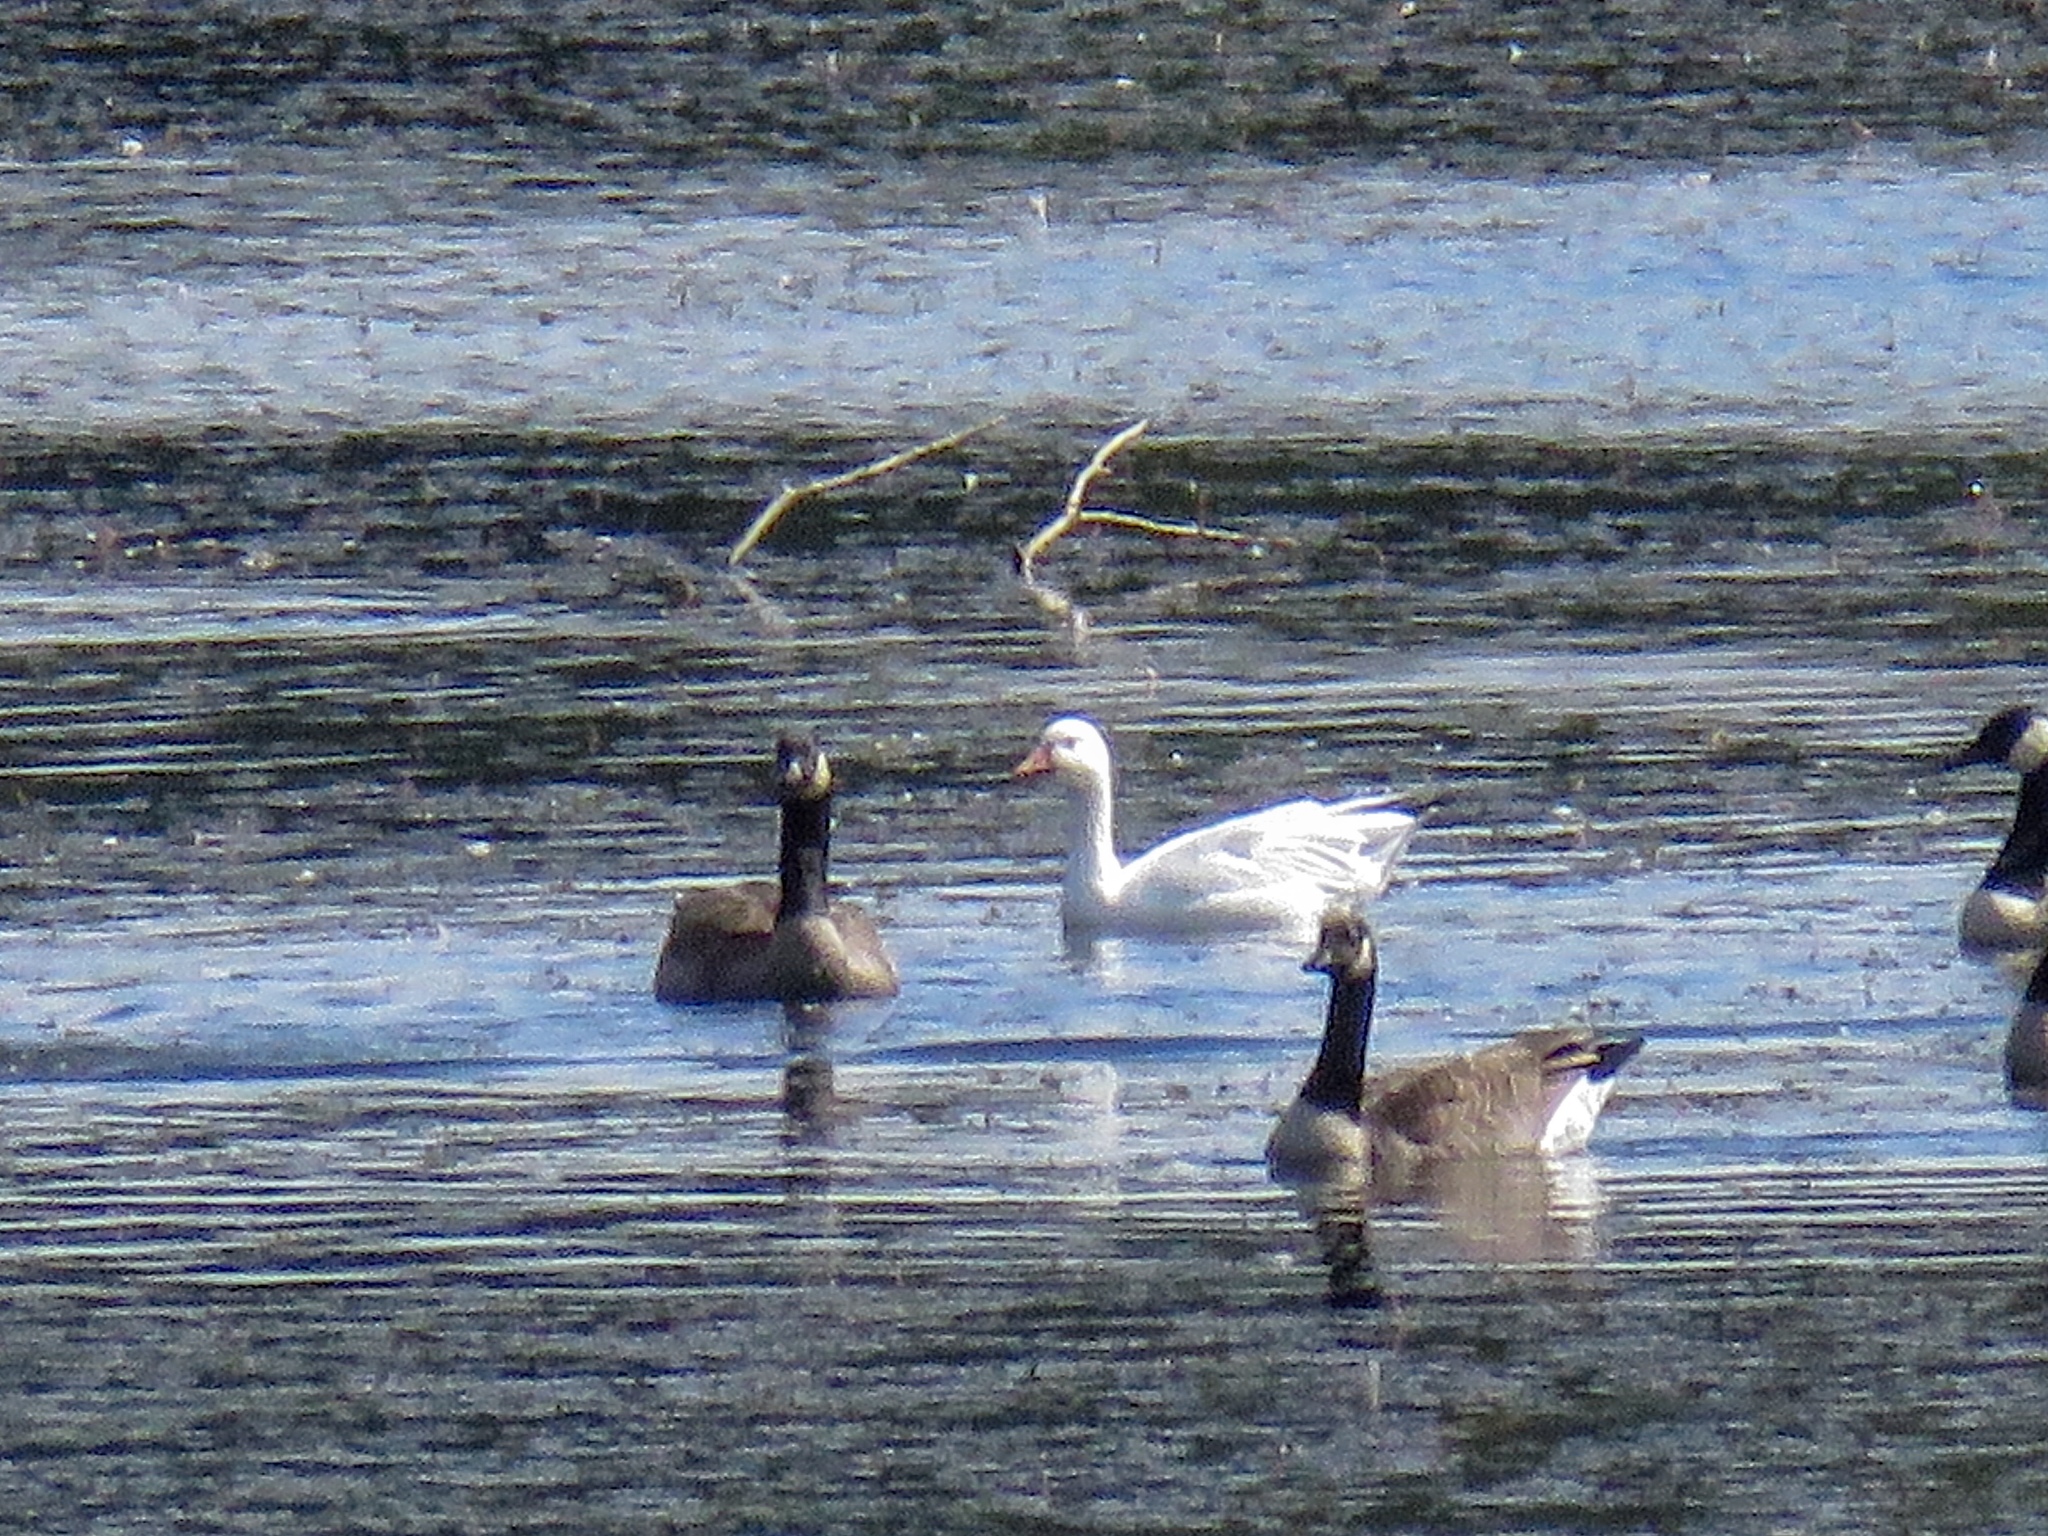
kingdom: Animalia
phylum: Chordata
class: Aves
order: Anseriformes
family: Anatidae
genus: Anser
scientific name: Anser caerulescens
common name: Snow goose
